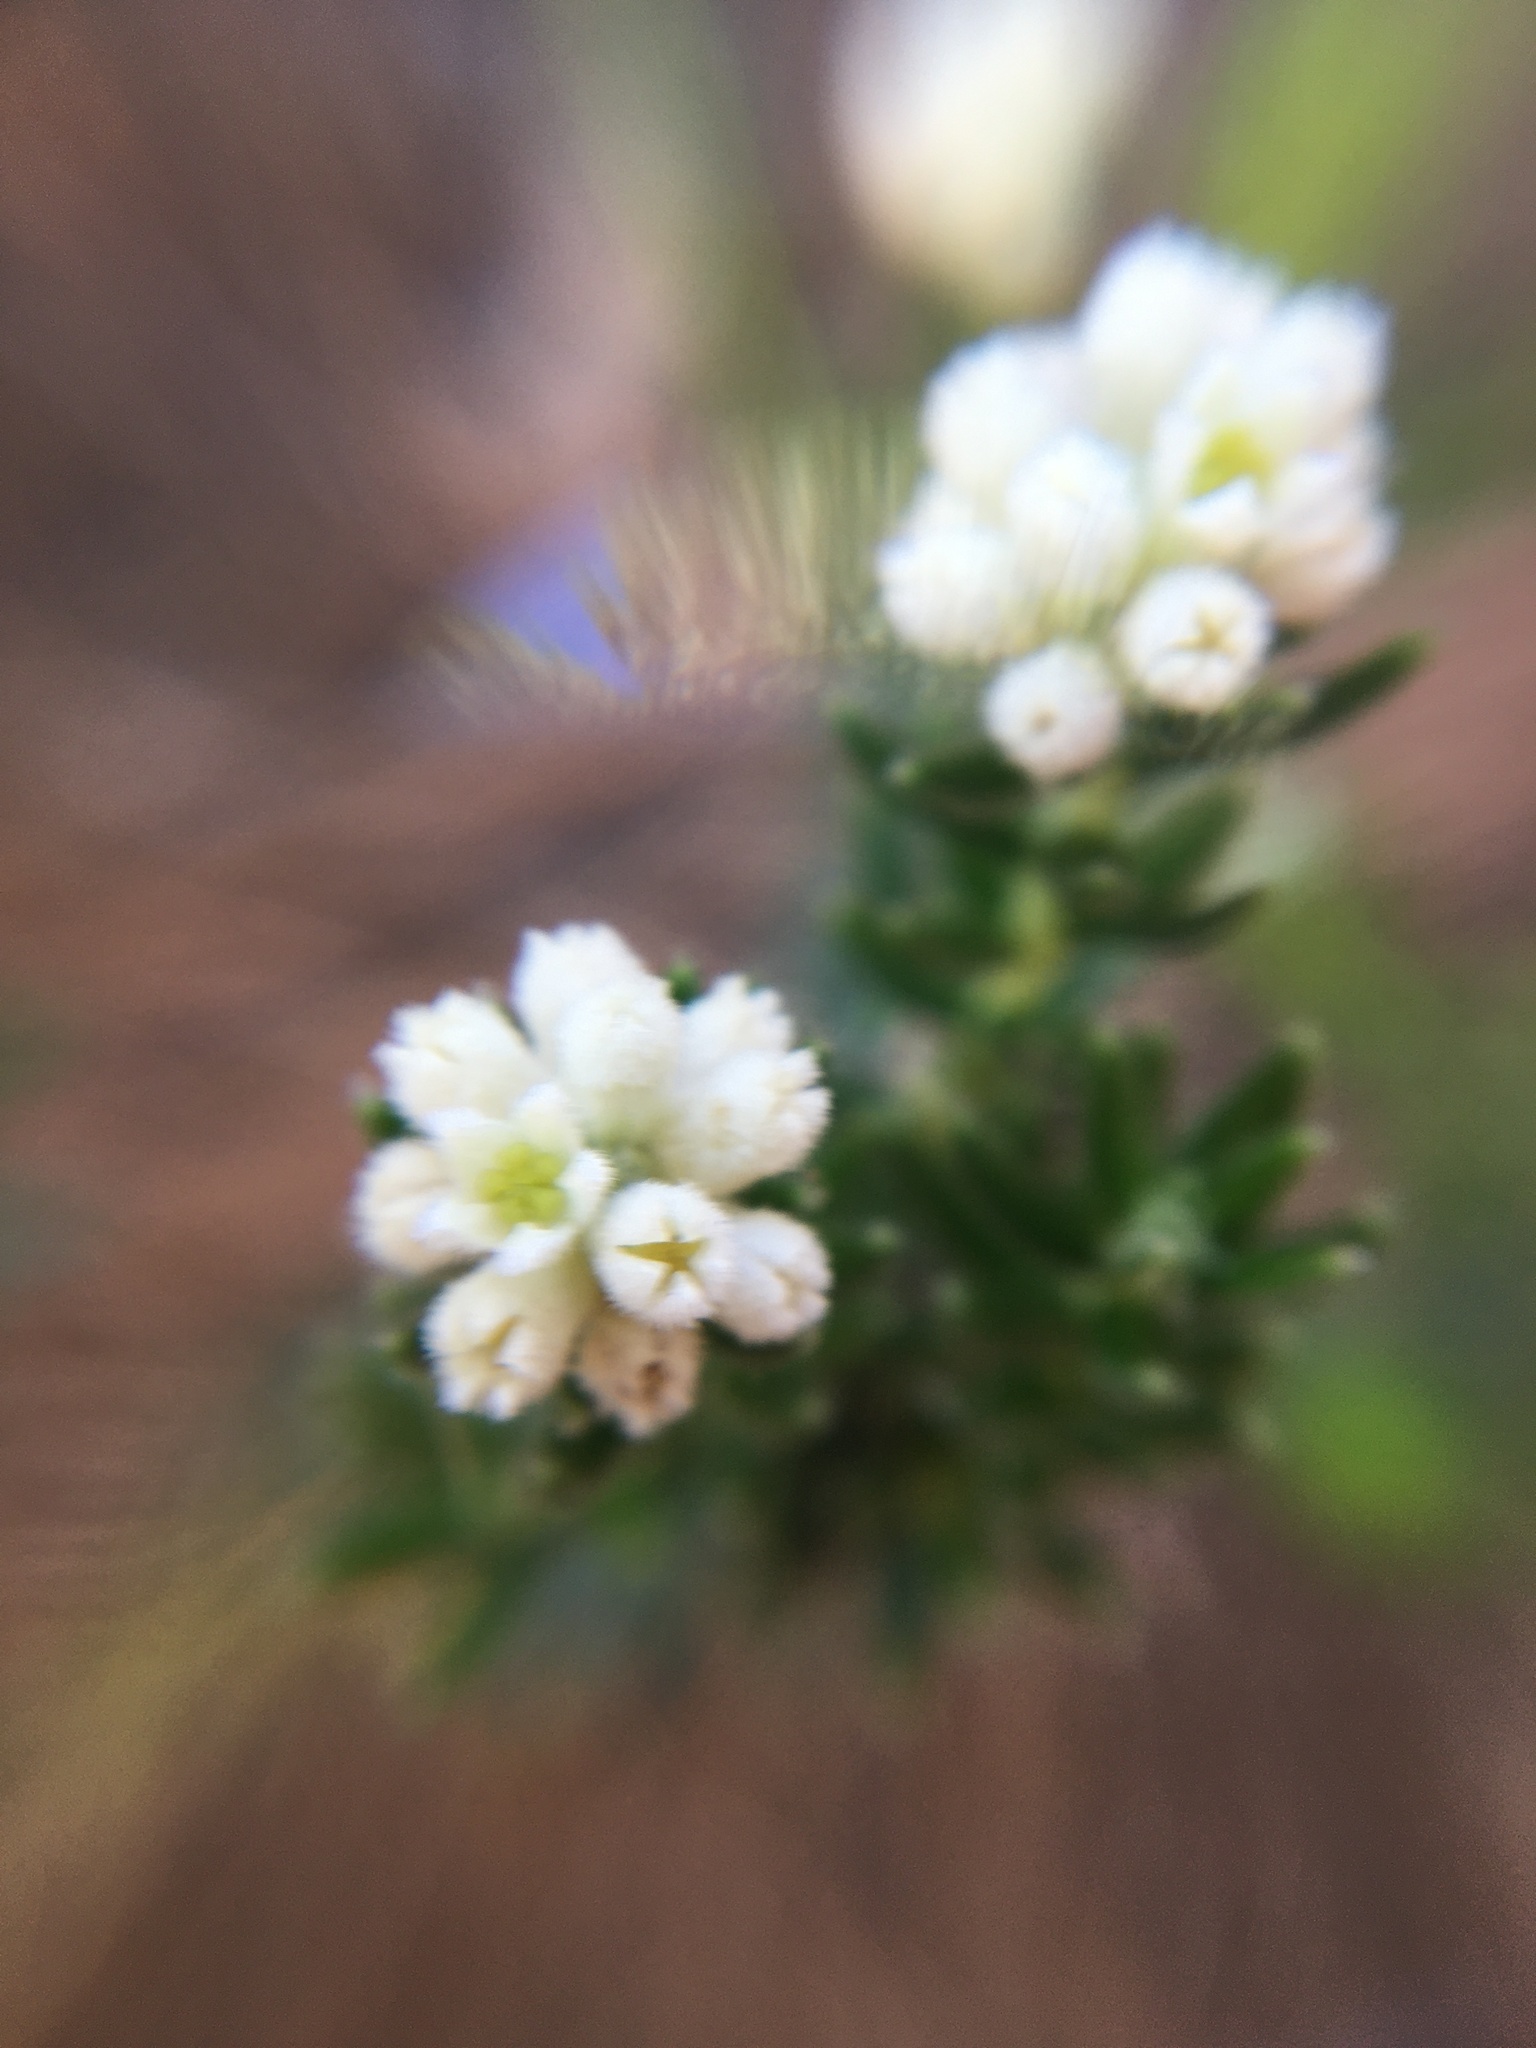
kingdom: Plantae
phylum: Tracheophyta
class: Magnoliopsida
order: Rosales
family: Rhamnaceae
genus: Phylica
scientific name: Phylica imberbis
